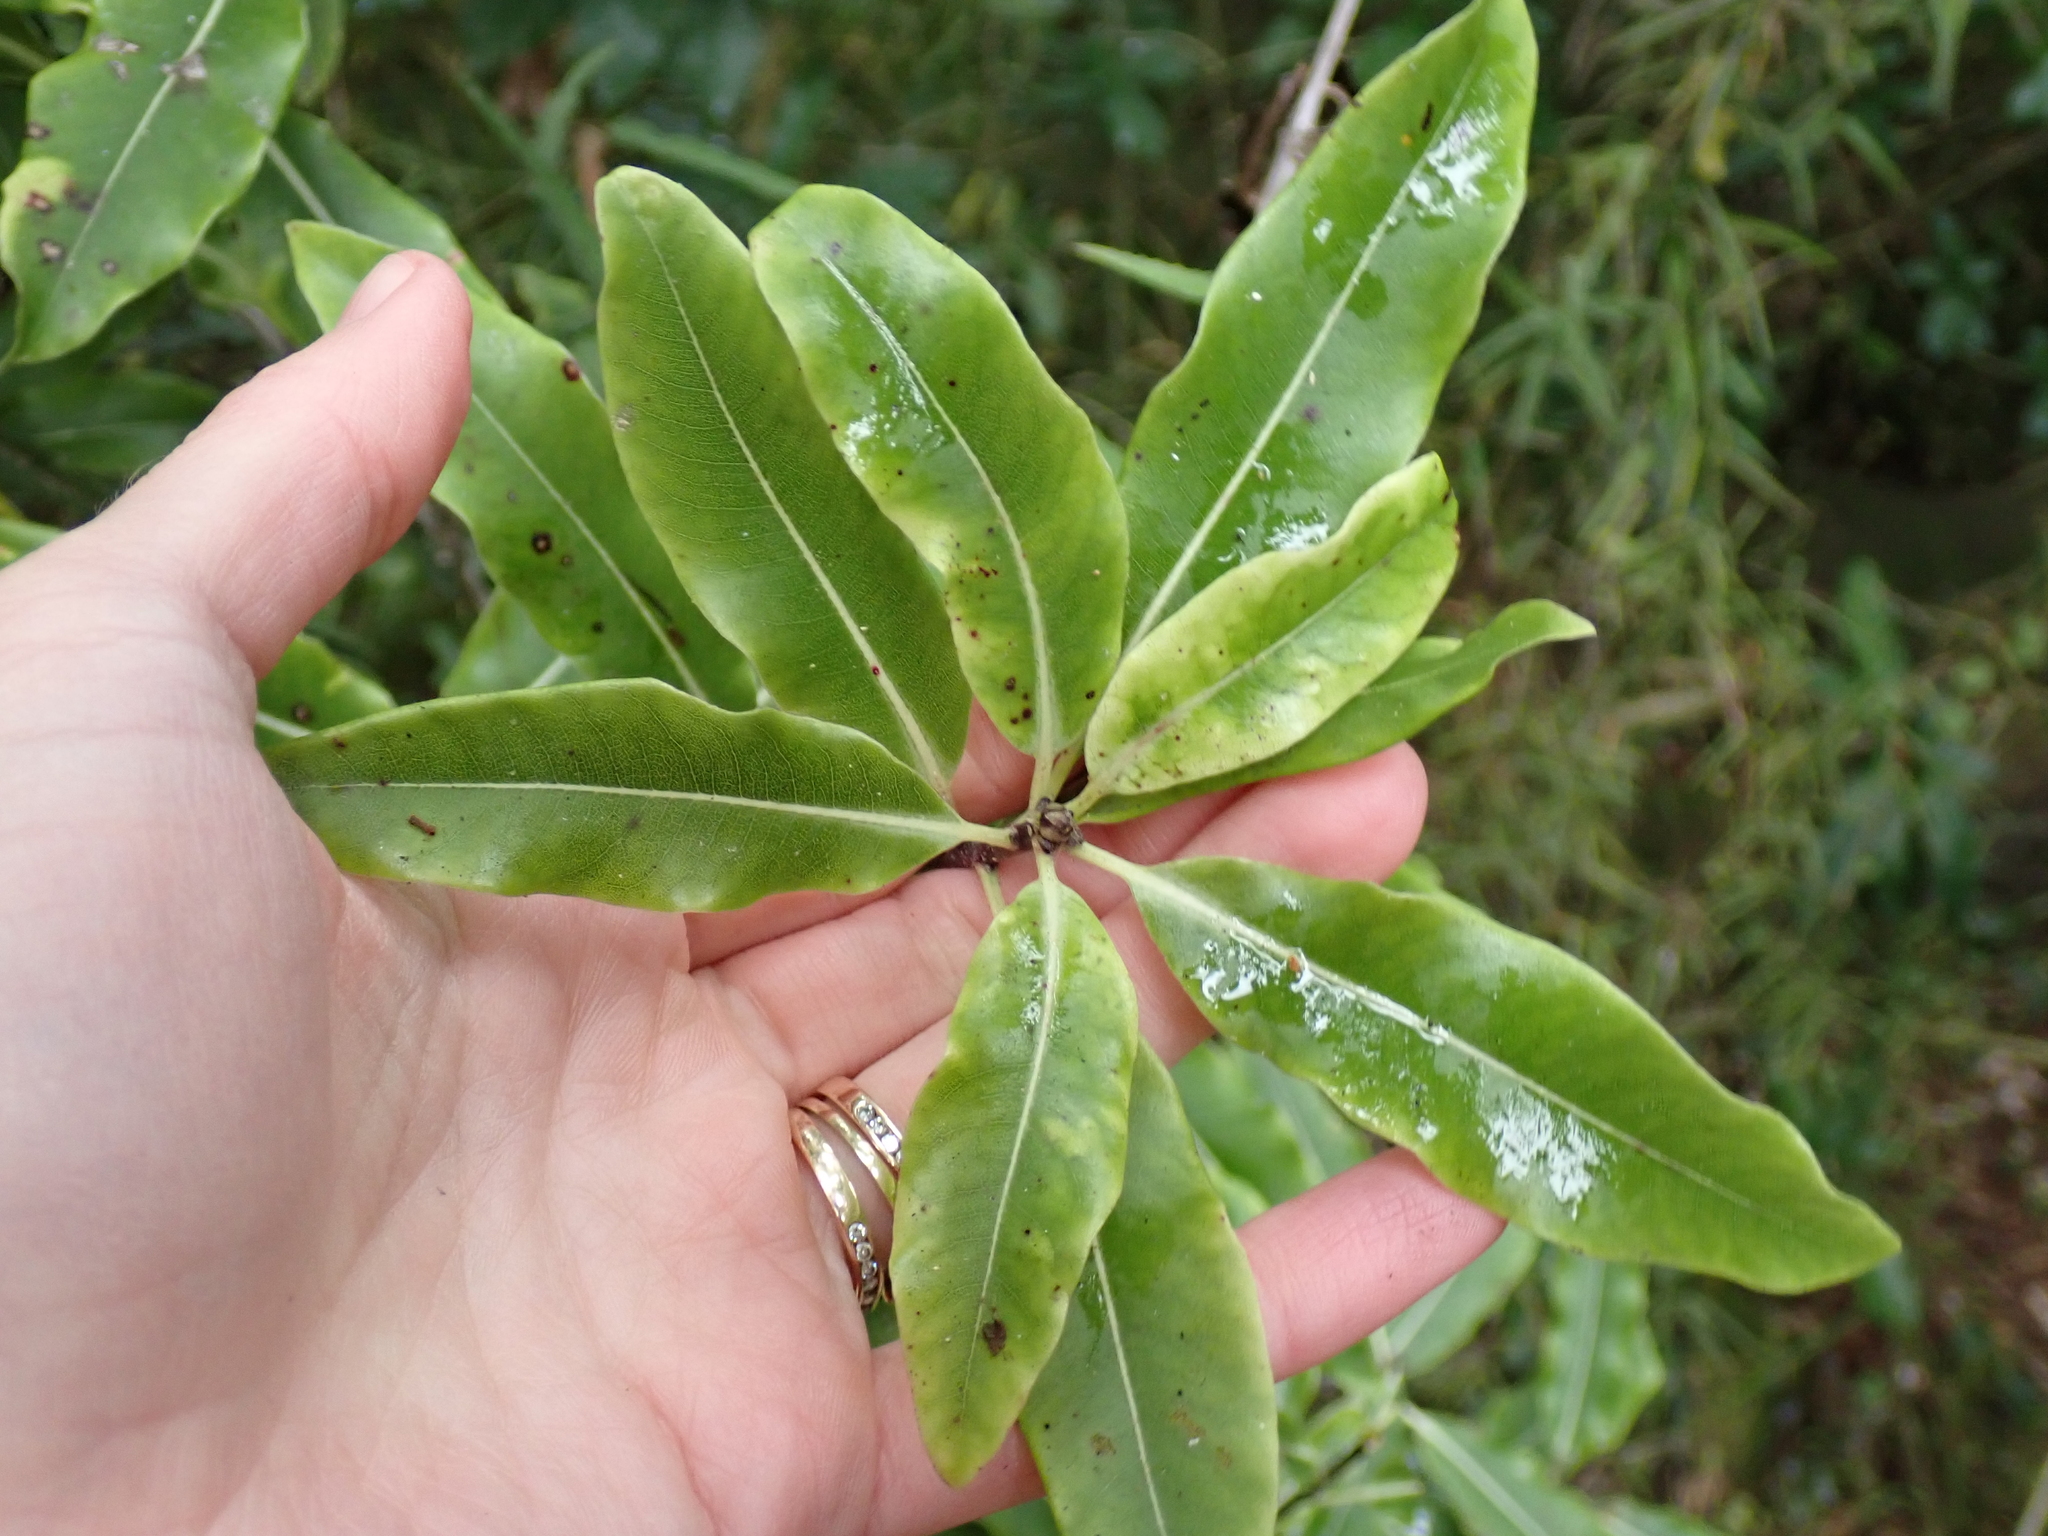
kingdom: Plantae
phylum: Tracheophyta
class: Magnoliopsida
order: Apiales
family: Pittosporaceae
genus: Pittosporum
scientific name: Pittosporum eugenioides
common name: Lemonwood
